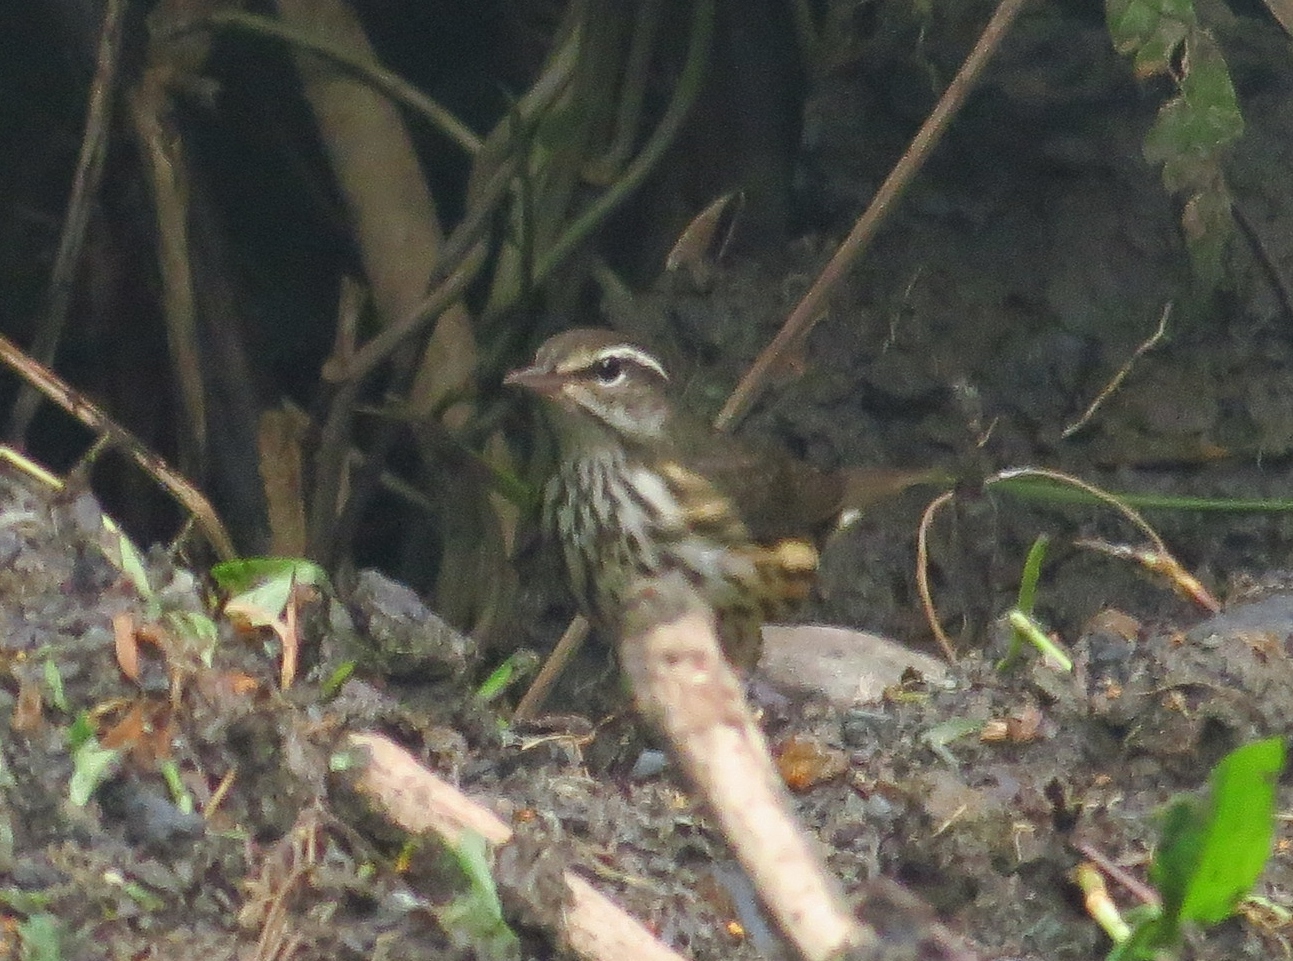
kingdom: Animalia
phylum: Chordata
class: Aves
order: Passeriformes
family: Parulidae
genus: Parkesia
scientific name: Parkesia motacilla
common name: Louisiana waterthrush
